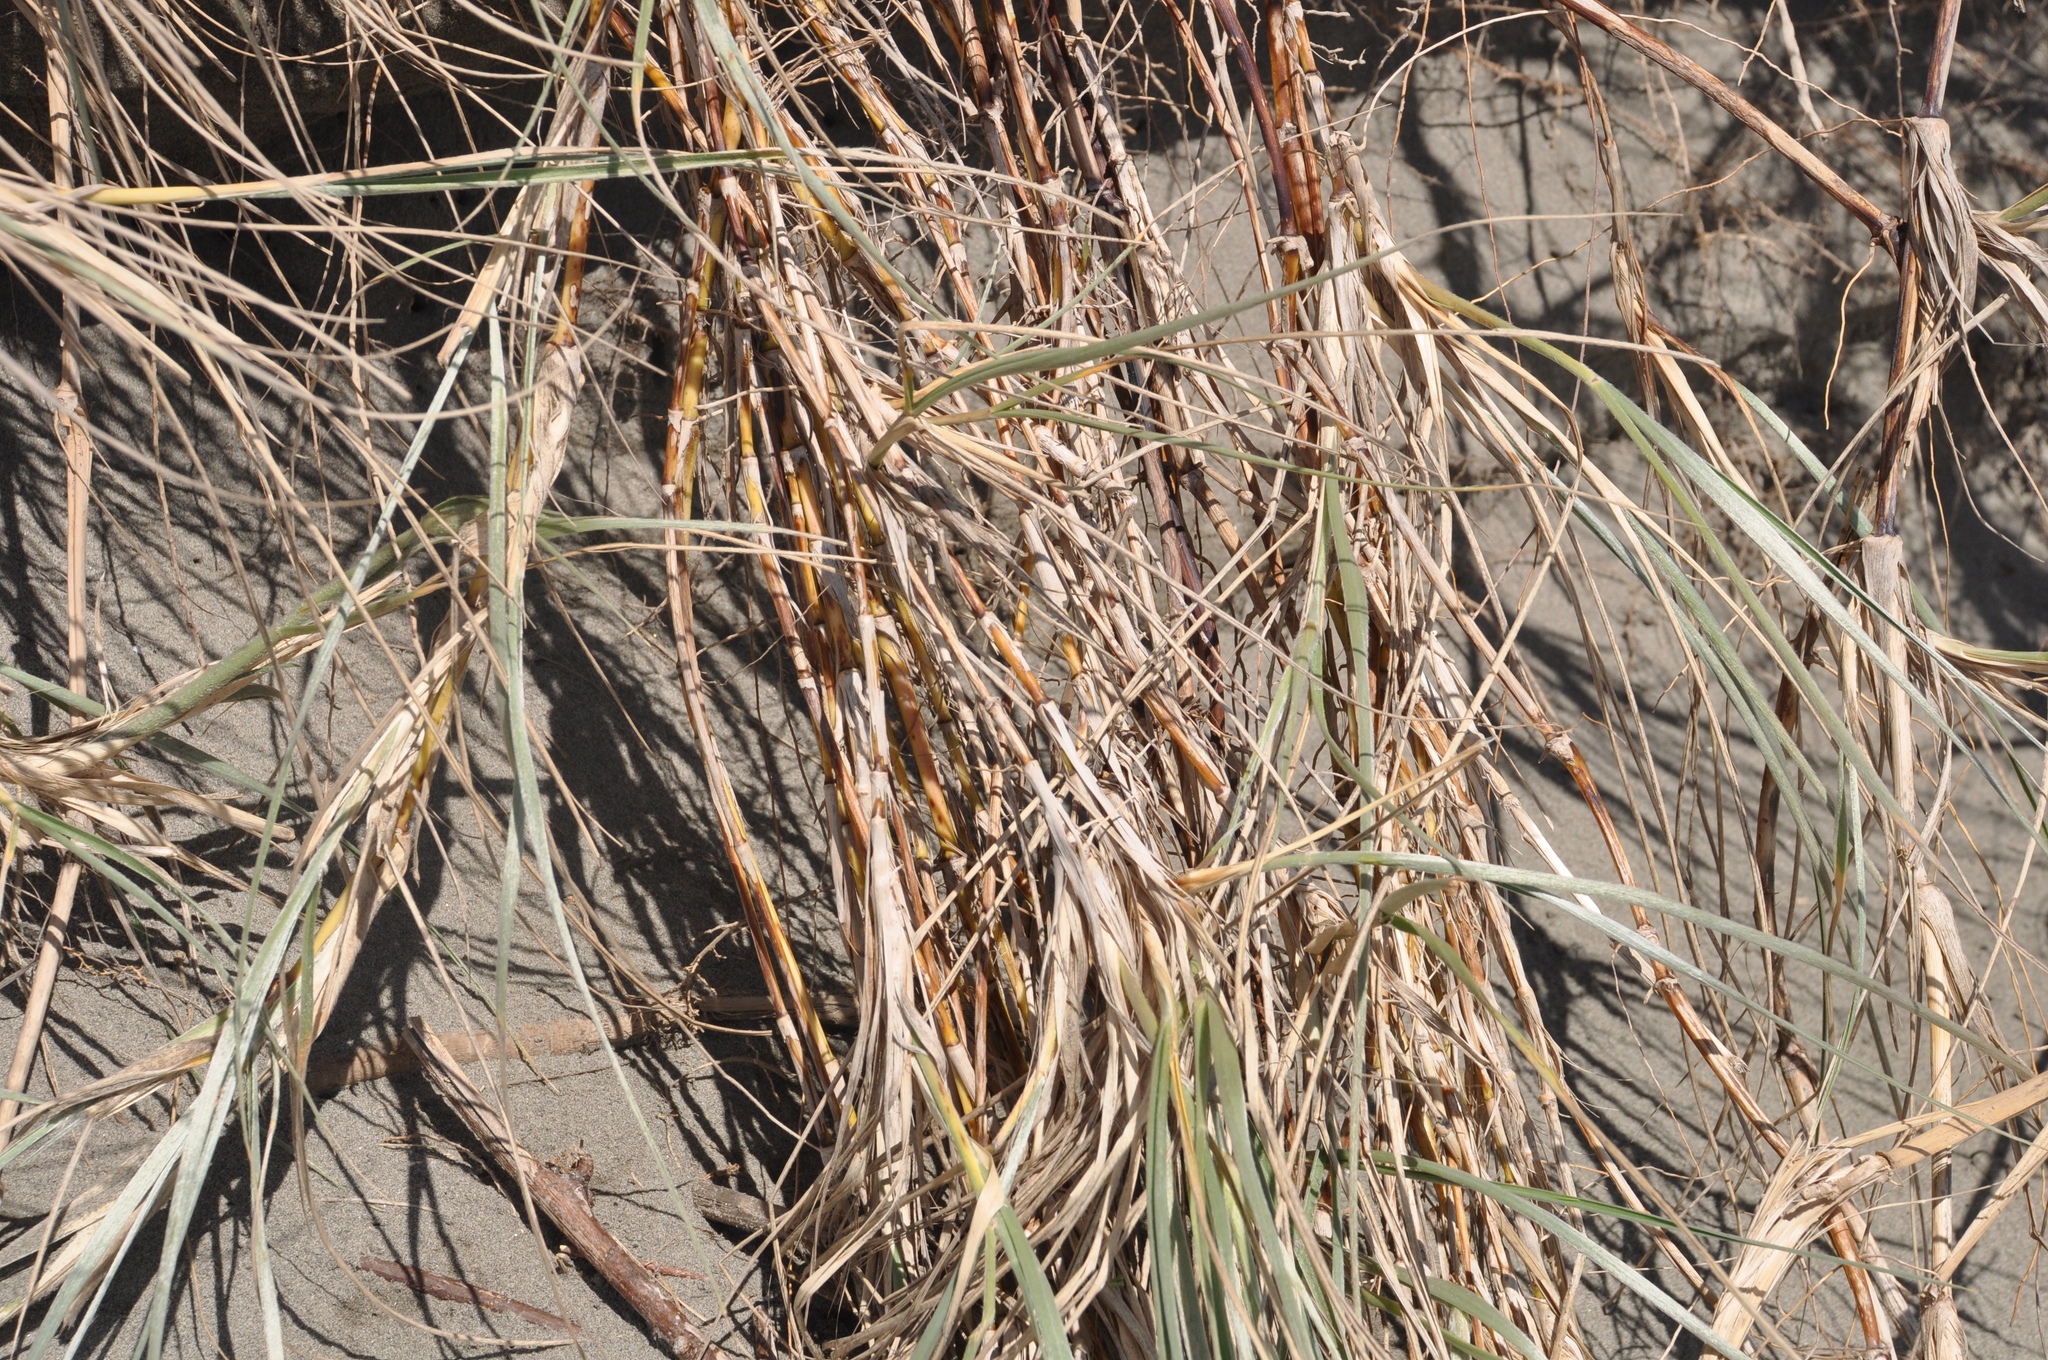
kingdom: Plantae
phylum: Tracheophyta
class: Liliopsida
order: Poales
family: Cyperaceae
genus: Ficinia
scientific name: Ficinia spiralis
